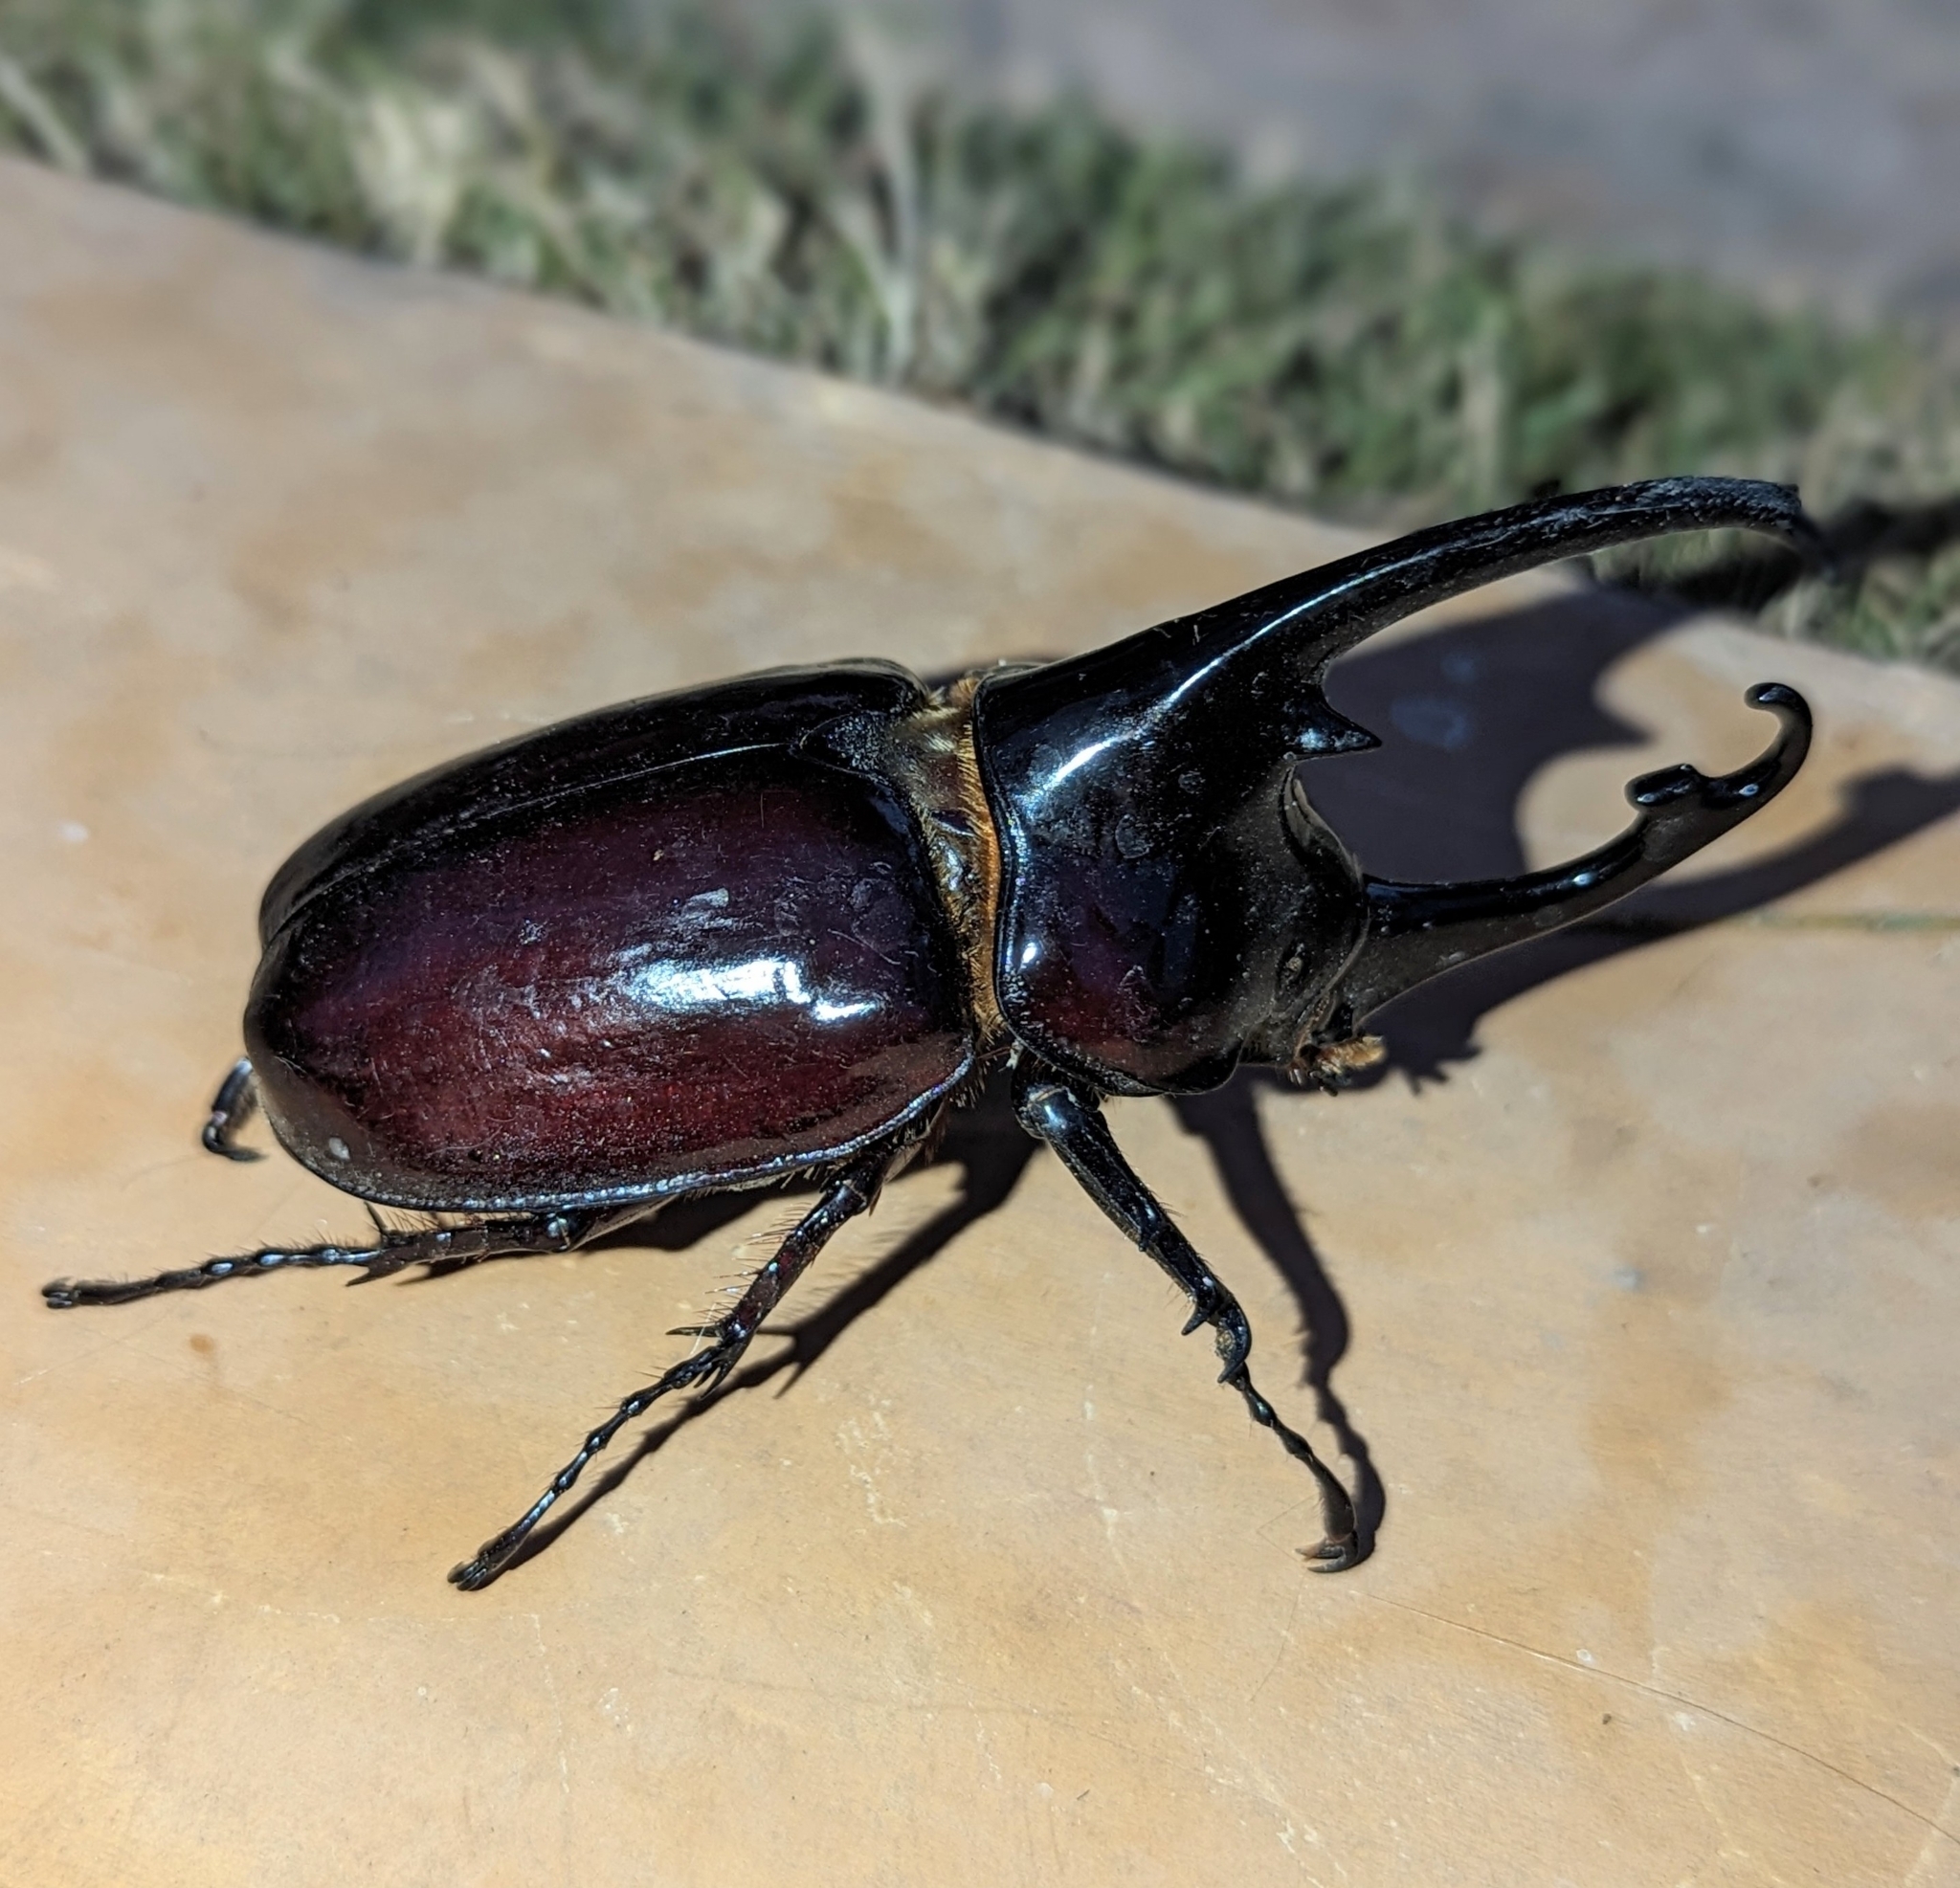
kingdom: Animalia
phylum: Arthropoda
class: Insecta
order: Coleoptera
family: Scarabaeidae
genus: Augosoma
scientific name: Augosoma centaurus
